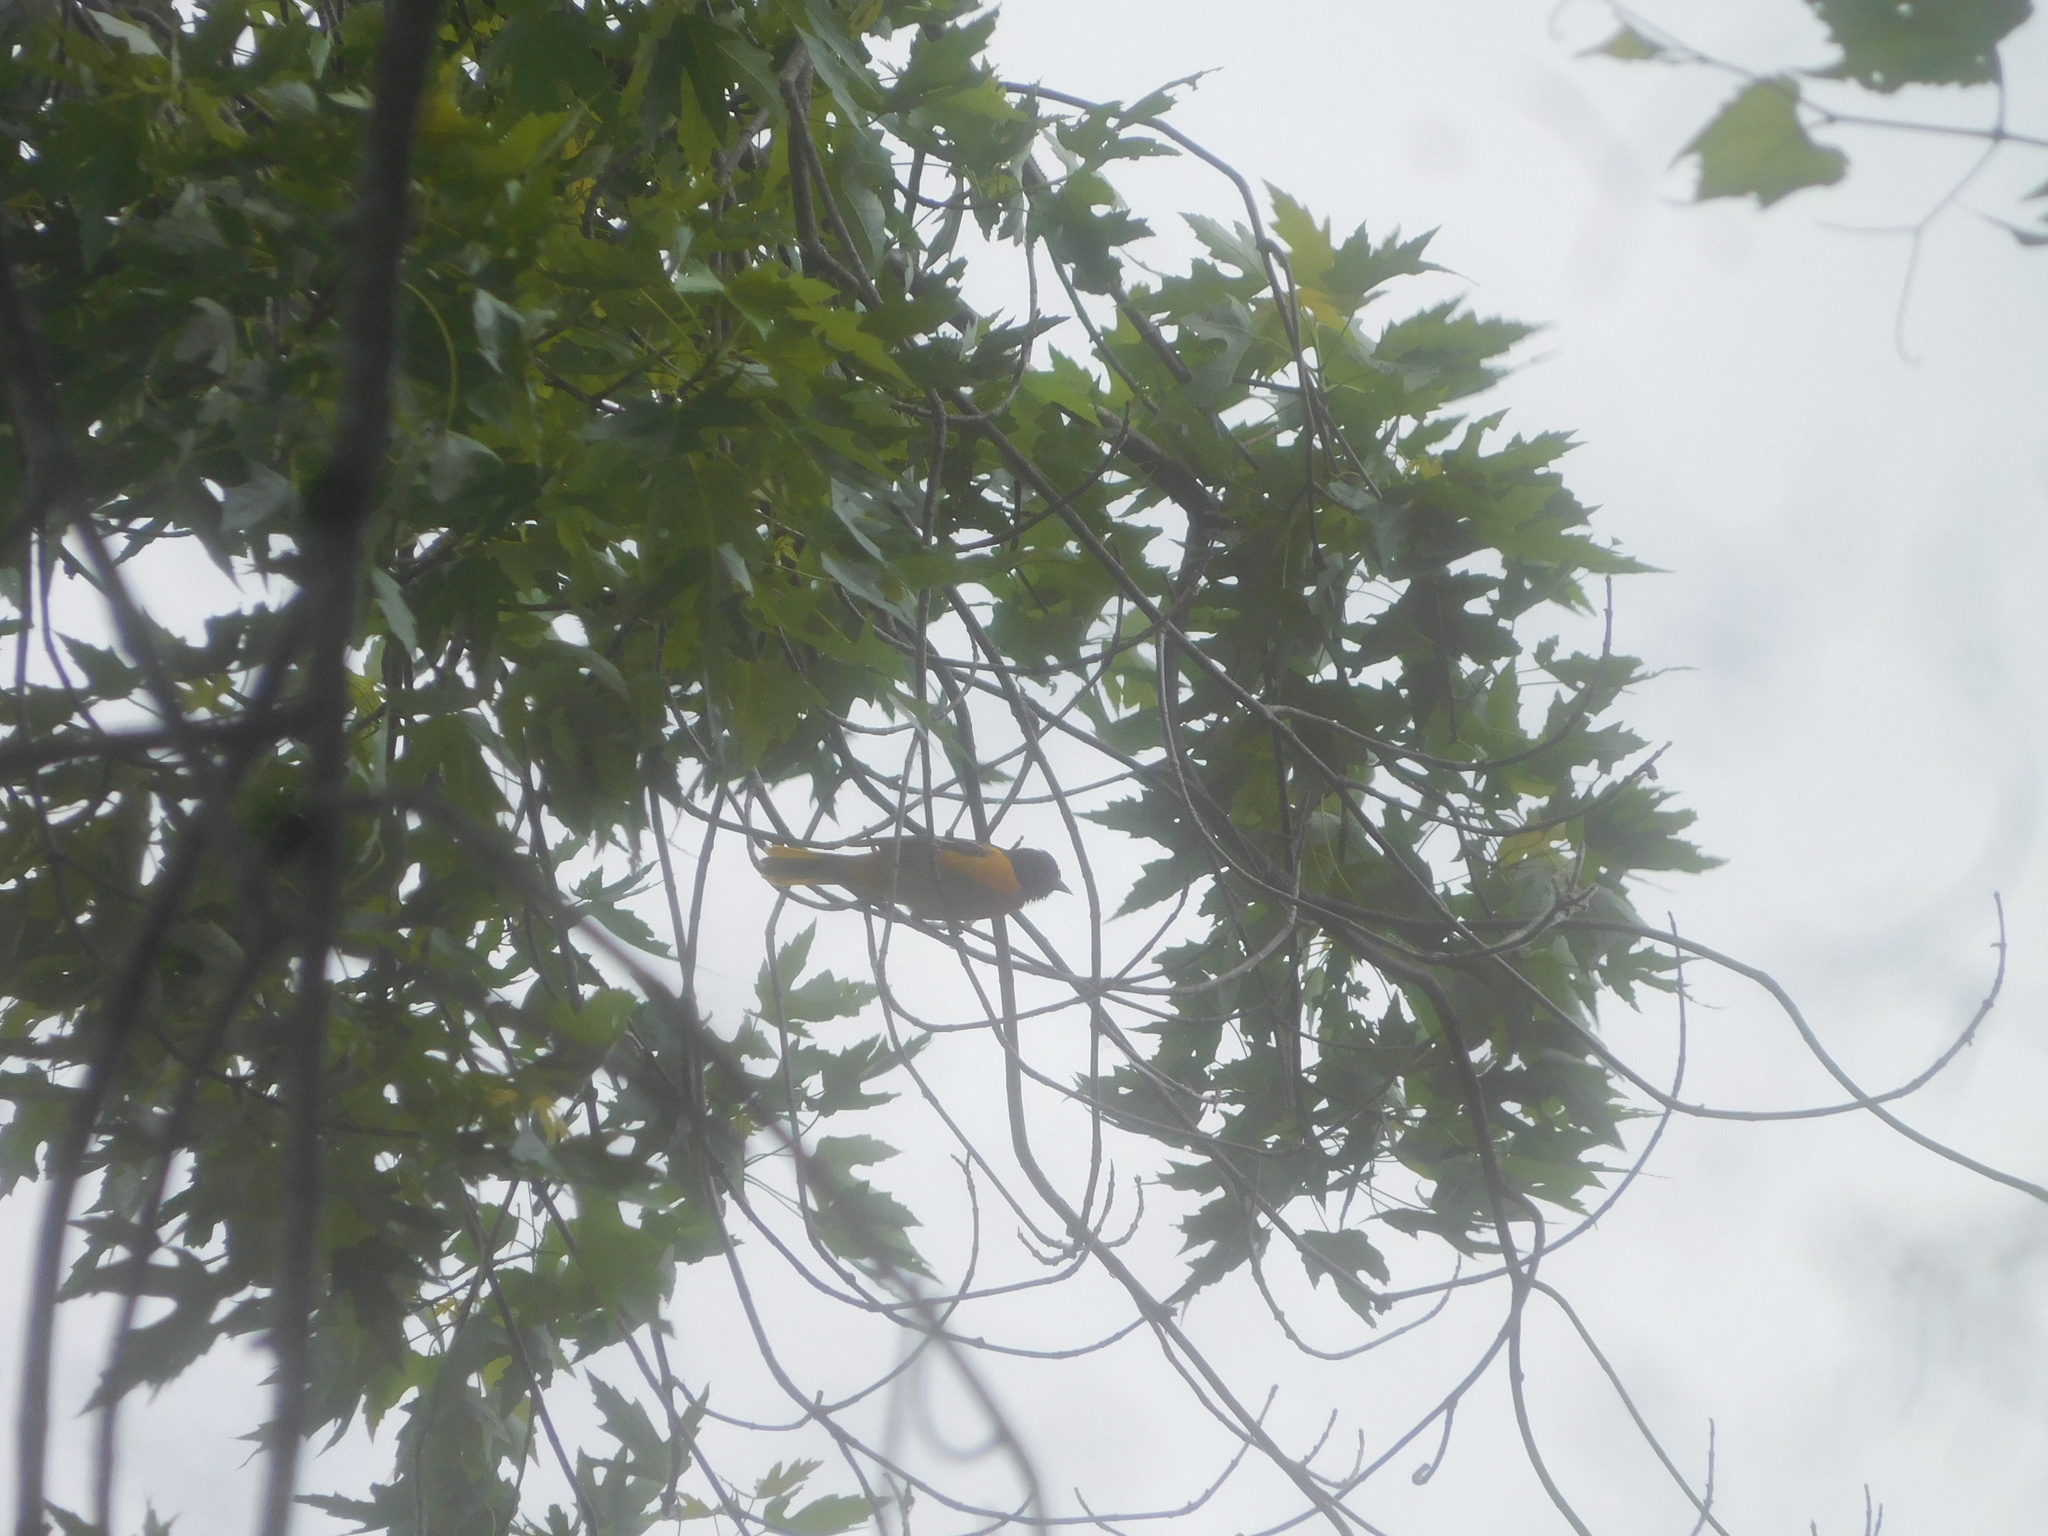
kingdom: Animalia
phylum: Chordata
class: Aves
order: Passeriformes
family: Icteridae
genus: Icterus
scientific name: Icterus galbula
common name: Baltimore oriole
